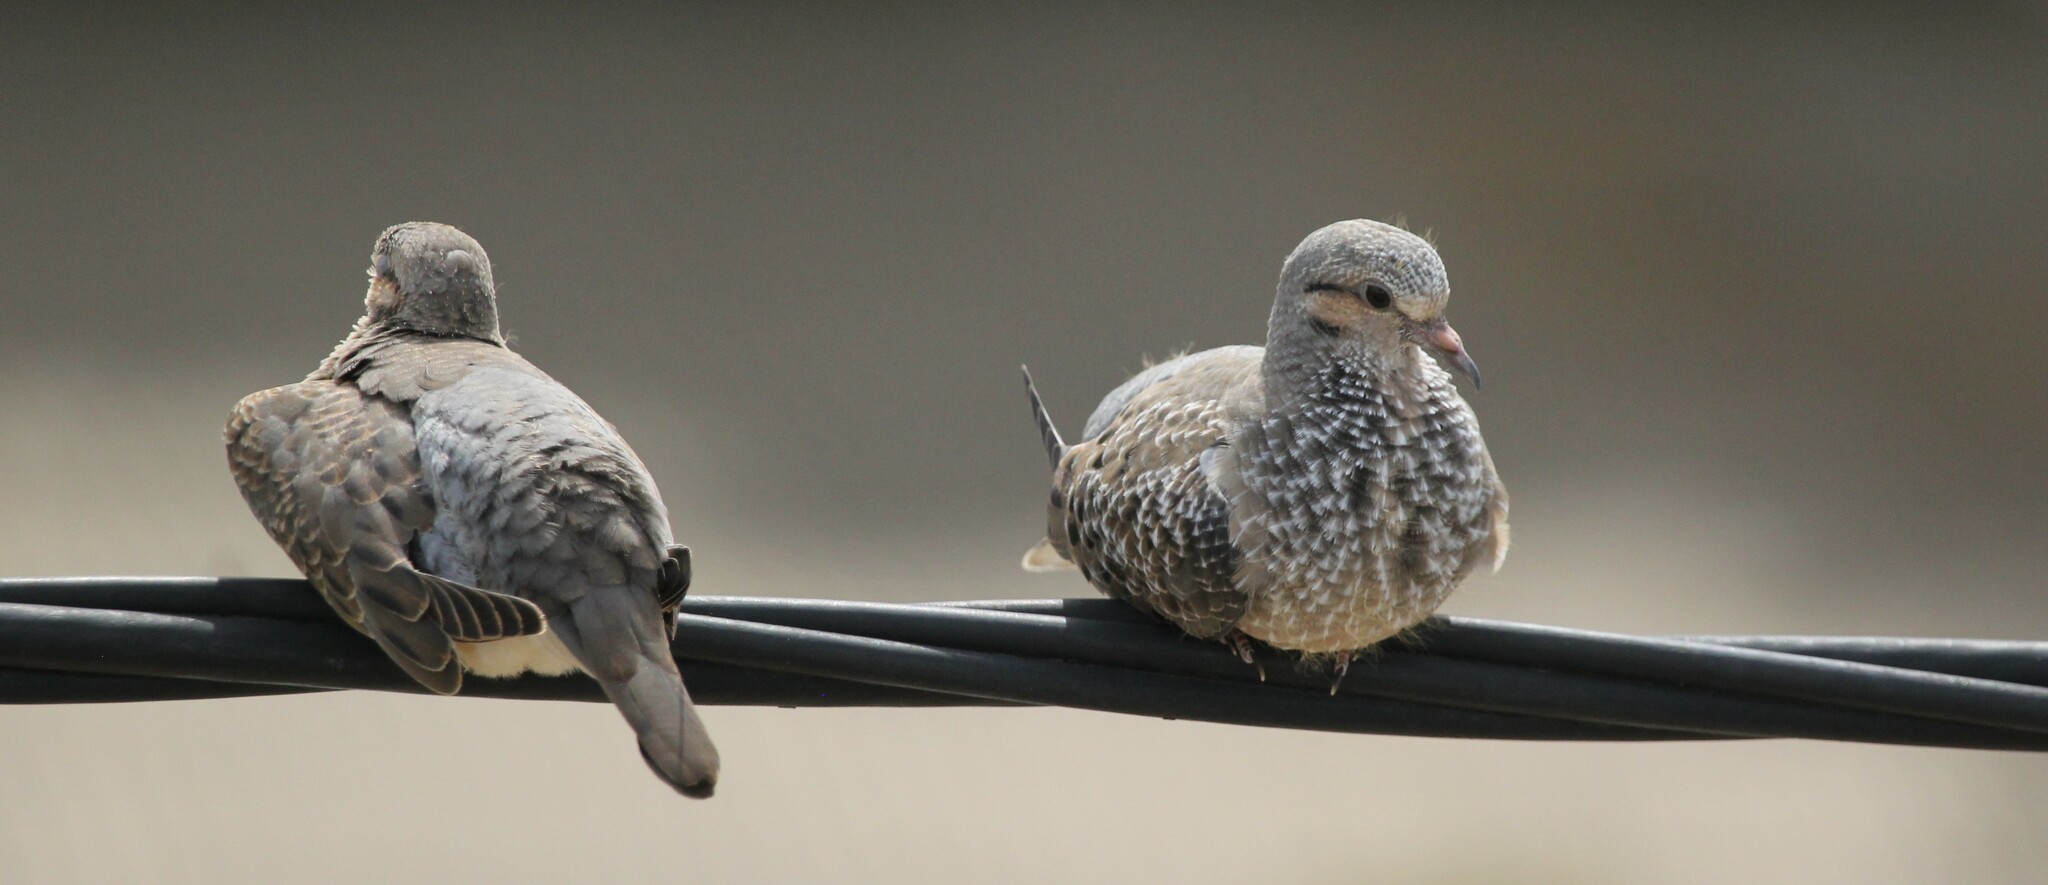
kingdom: Animalia
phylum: Chordata
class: Aves
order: Columbiformes
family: Columbidae
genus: Zenaida
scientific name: Zenaida auriculata
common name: Eared dove
